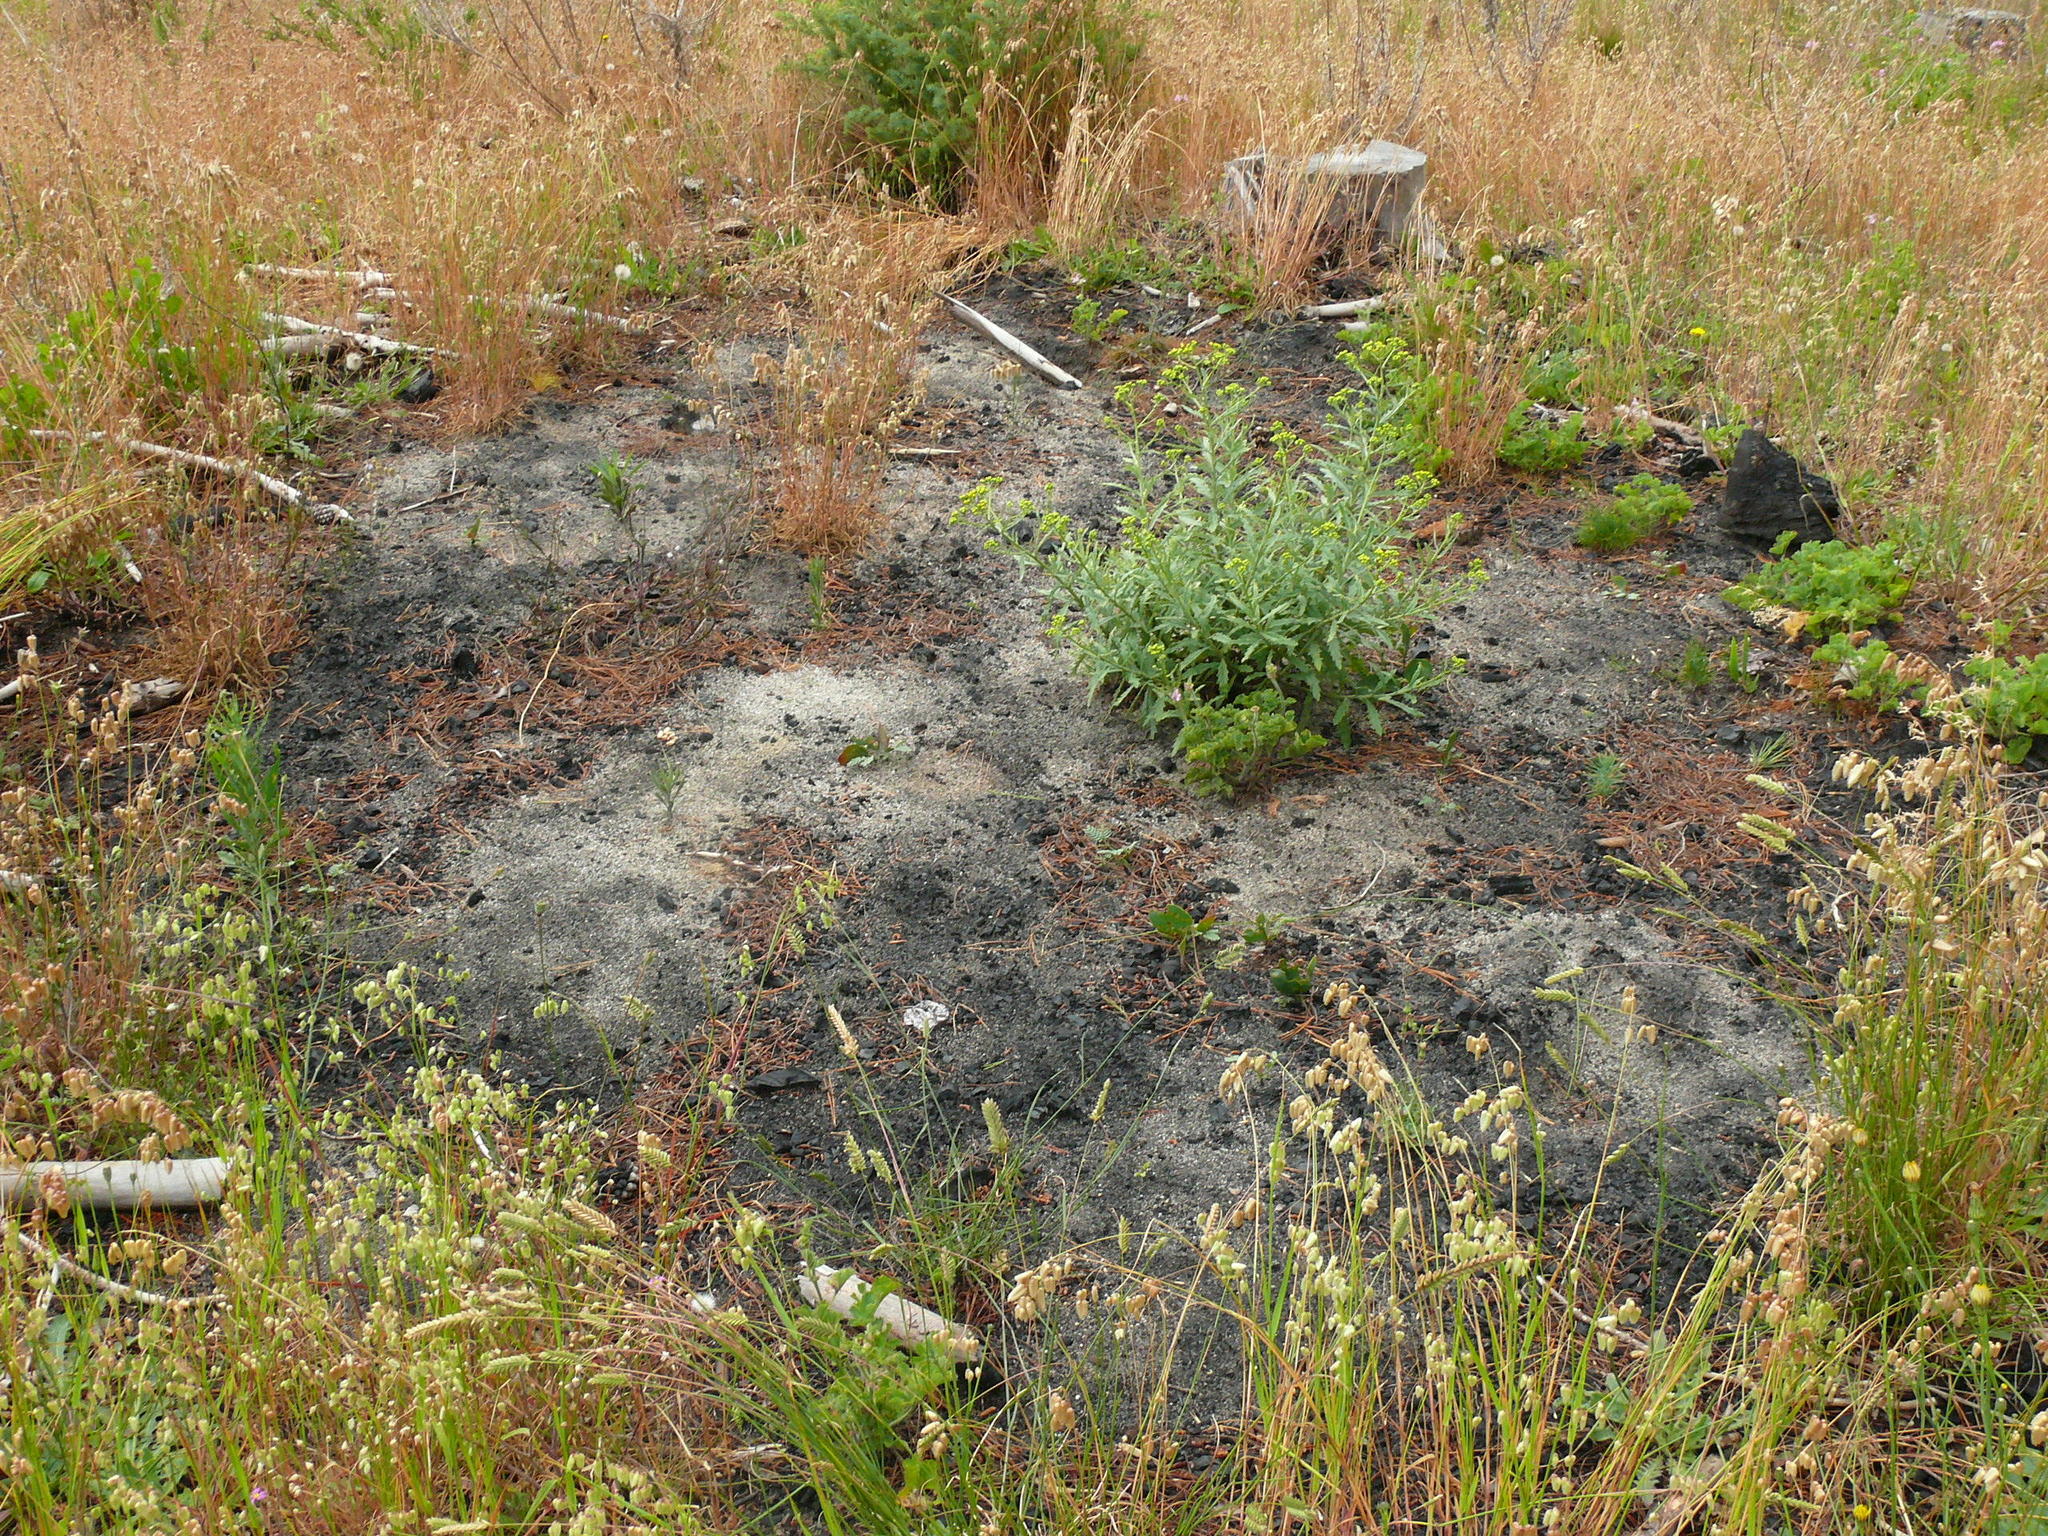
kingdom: Plantae
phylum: Tracheophyta
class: Liliopsida
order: Poales
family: Poaceae
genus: Briza
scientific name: Briza maxima
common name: Big quakinggrass
